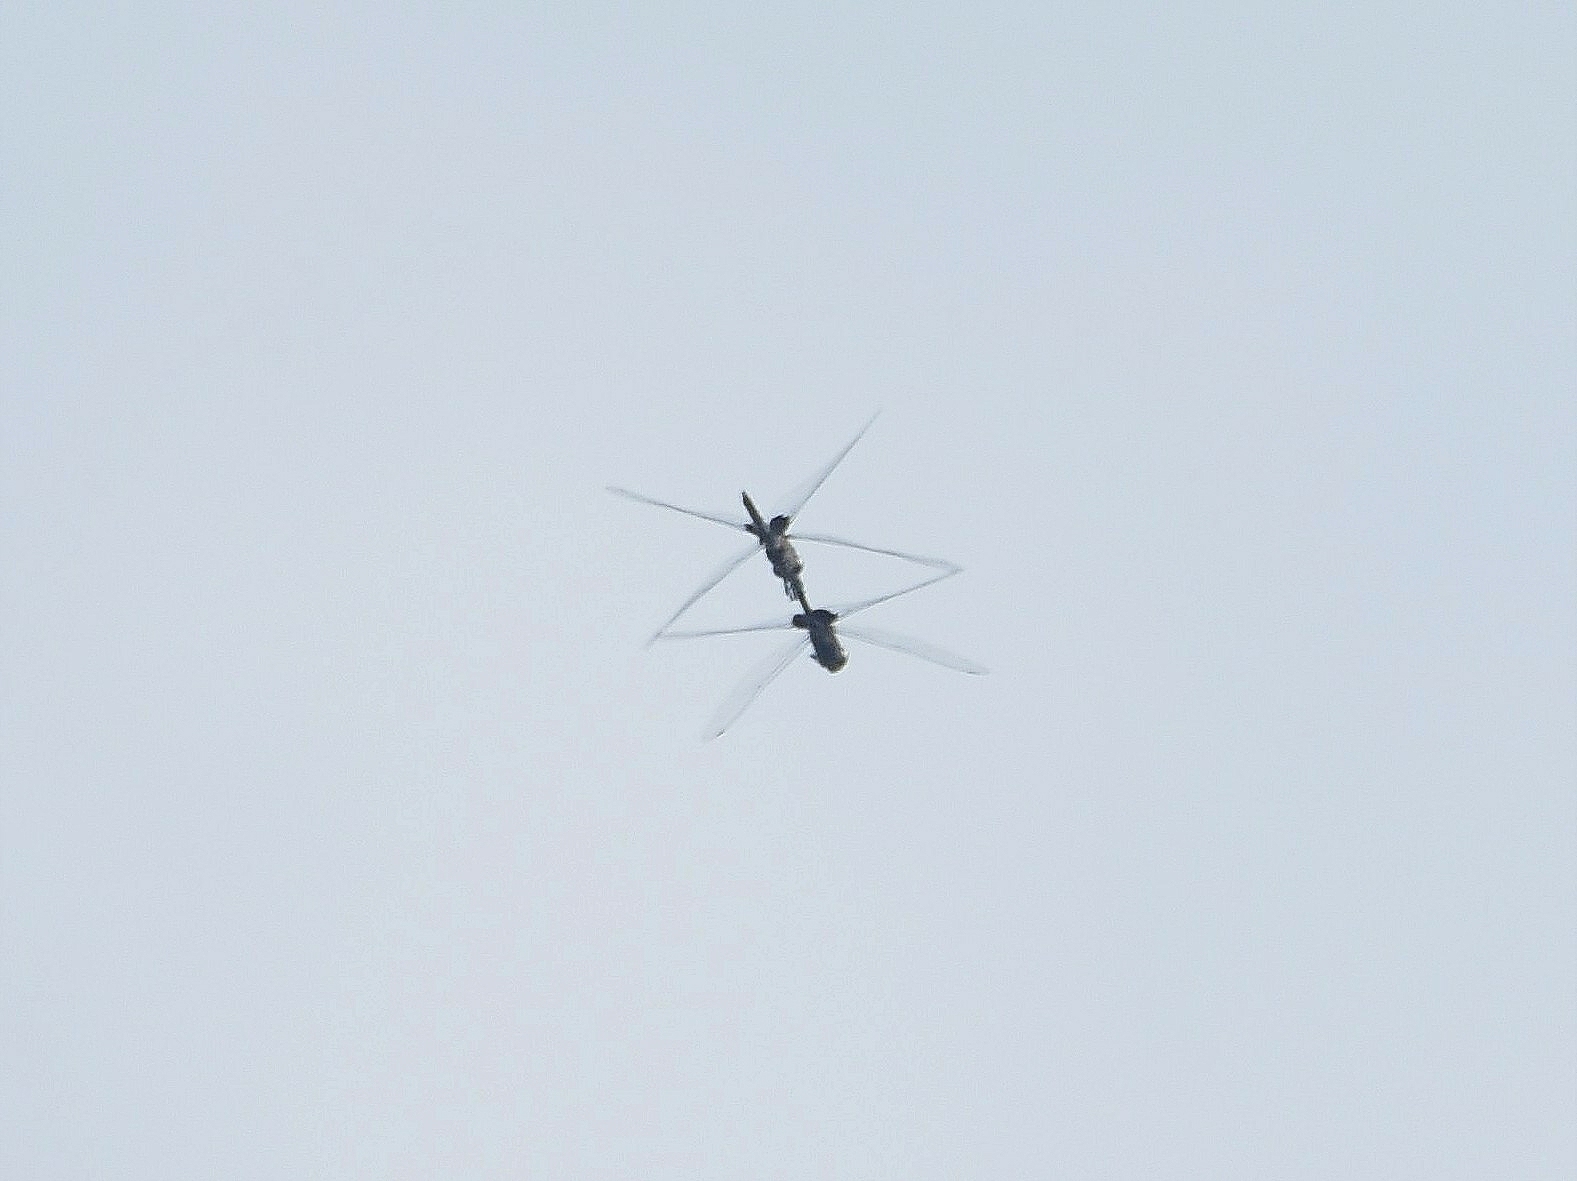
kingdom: Animalia
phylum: Arthropoda
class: Insecta
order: Odonata
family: Libellulidae
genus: Tramea
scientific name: Tramea limbata
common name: Ferruginous glider
